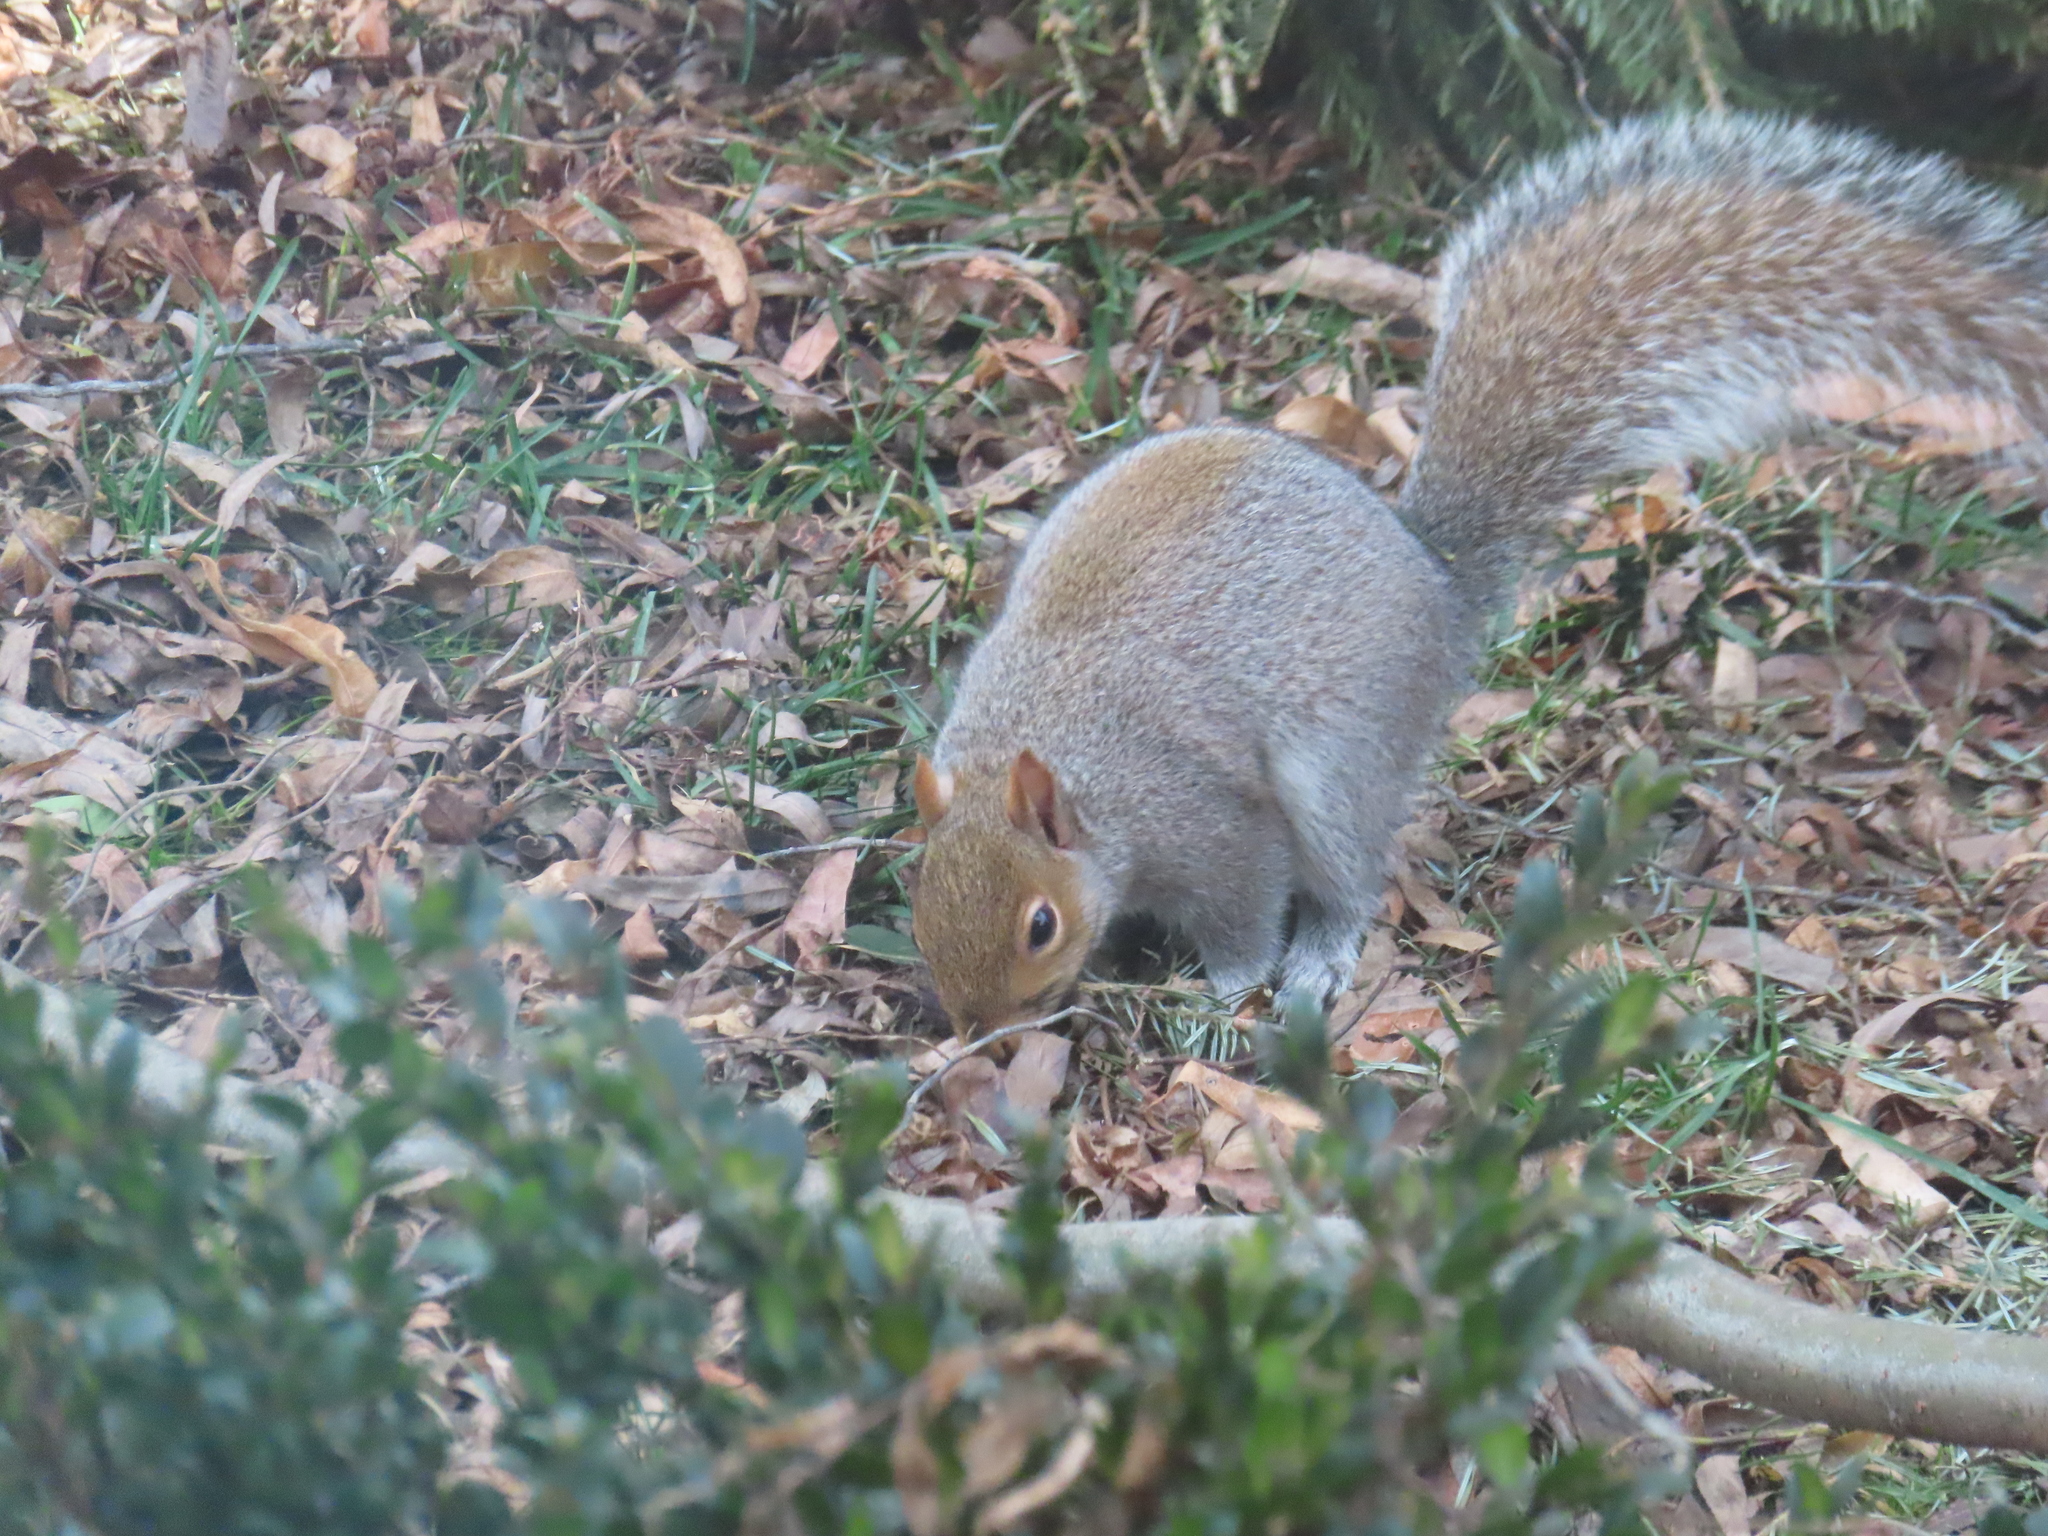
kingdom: Animalia
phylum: Chordata
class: Mammalia
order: Rodentia
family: Sciuridae
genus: Sciurus
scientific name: Sciurus carolinensis
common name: Eastern gray squirrel
